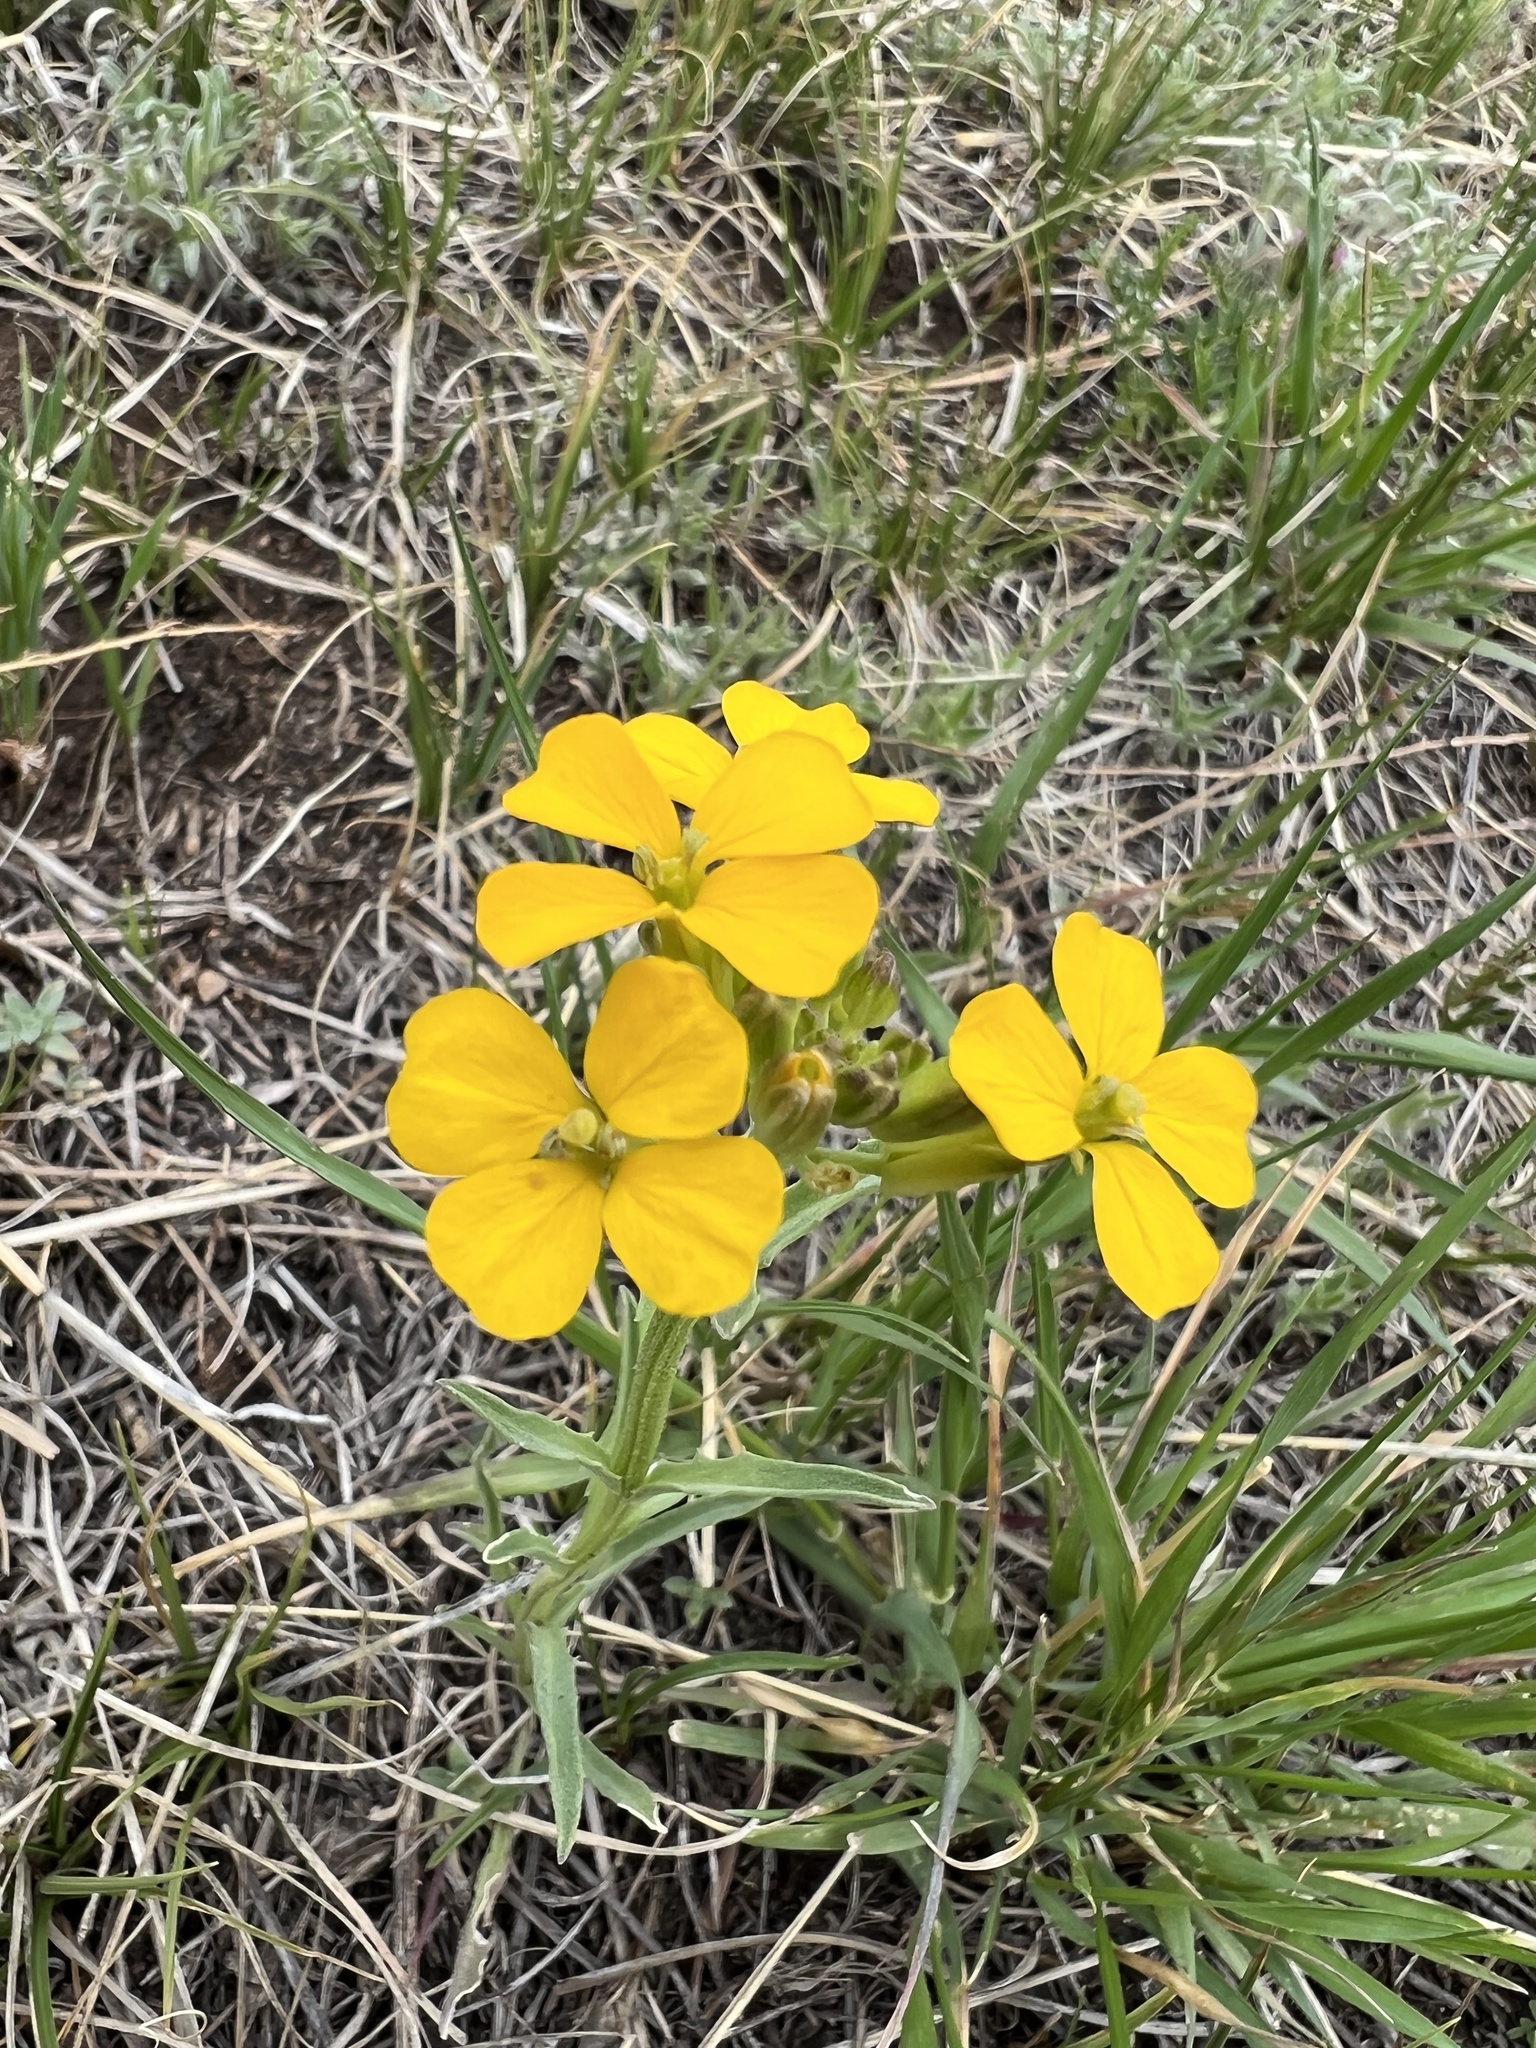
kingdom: Plantae
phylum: Tracheophyta
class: Magnoliopsida
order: Brassicales
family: Brassicaceae
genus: Erysimum
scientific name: Erysimum capitatum
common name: Western wallflower
